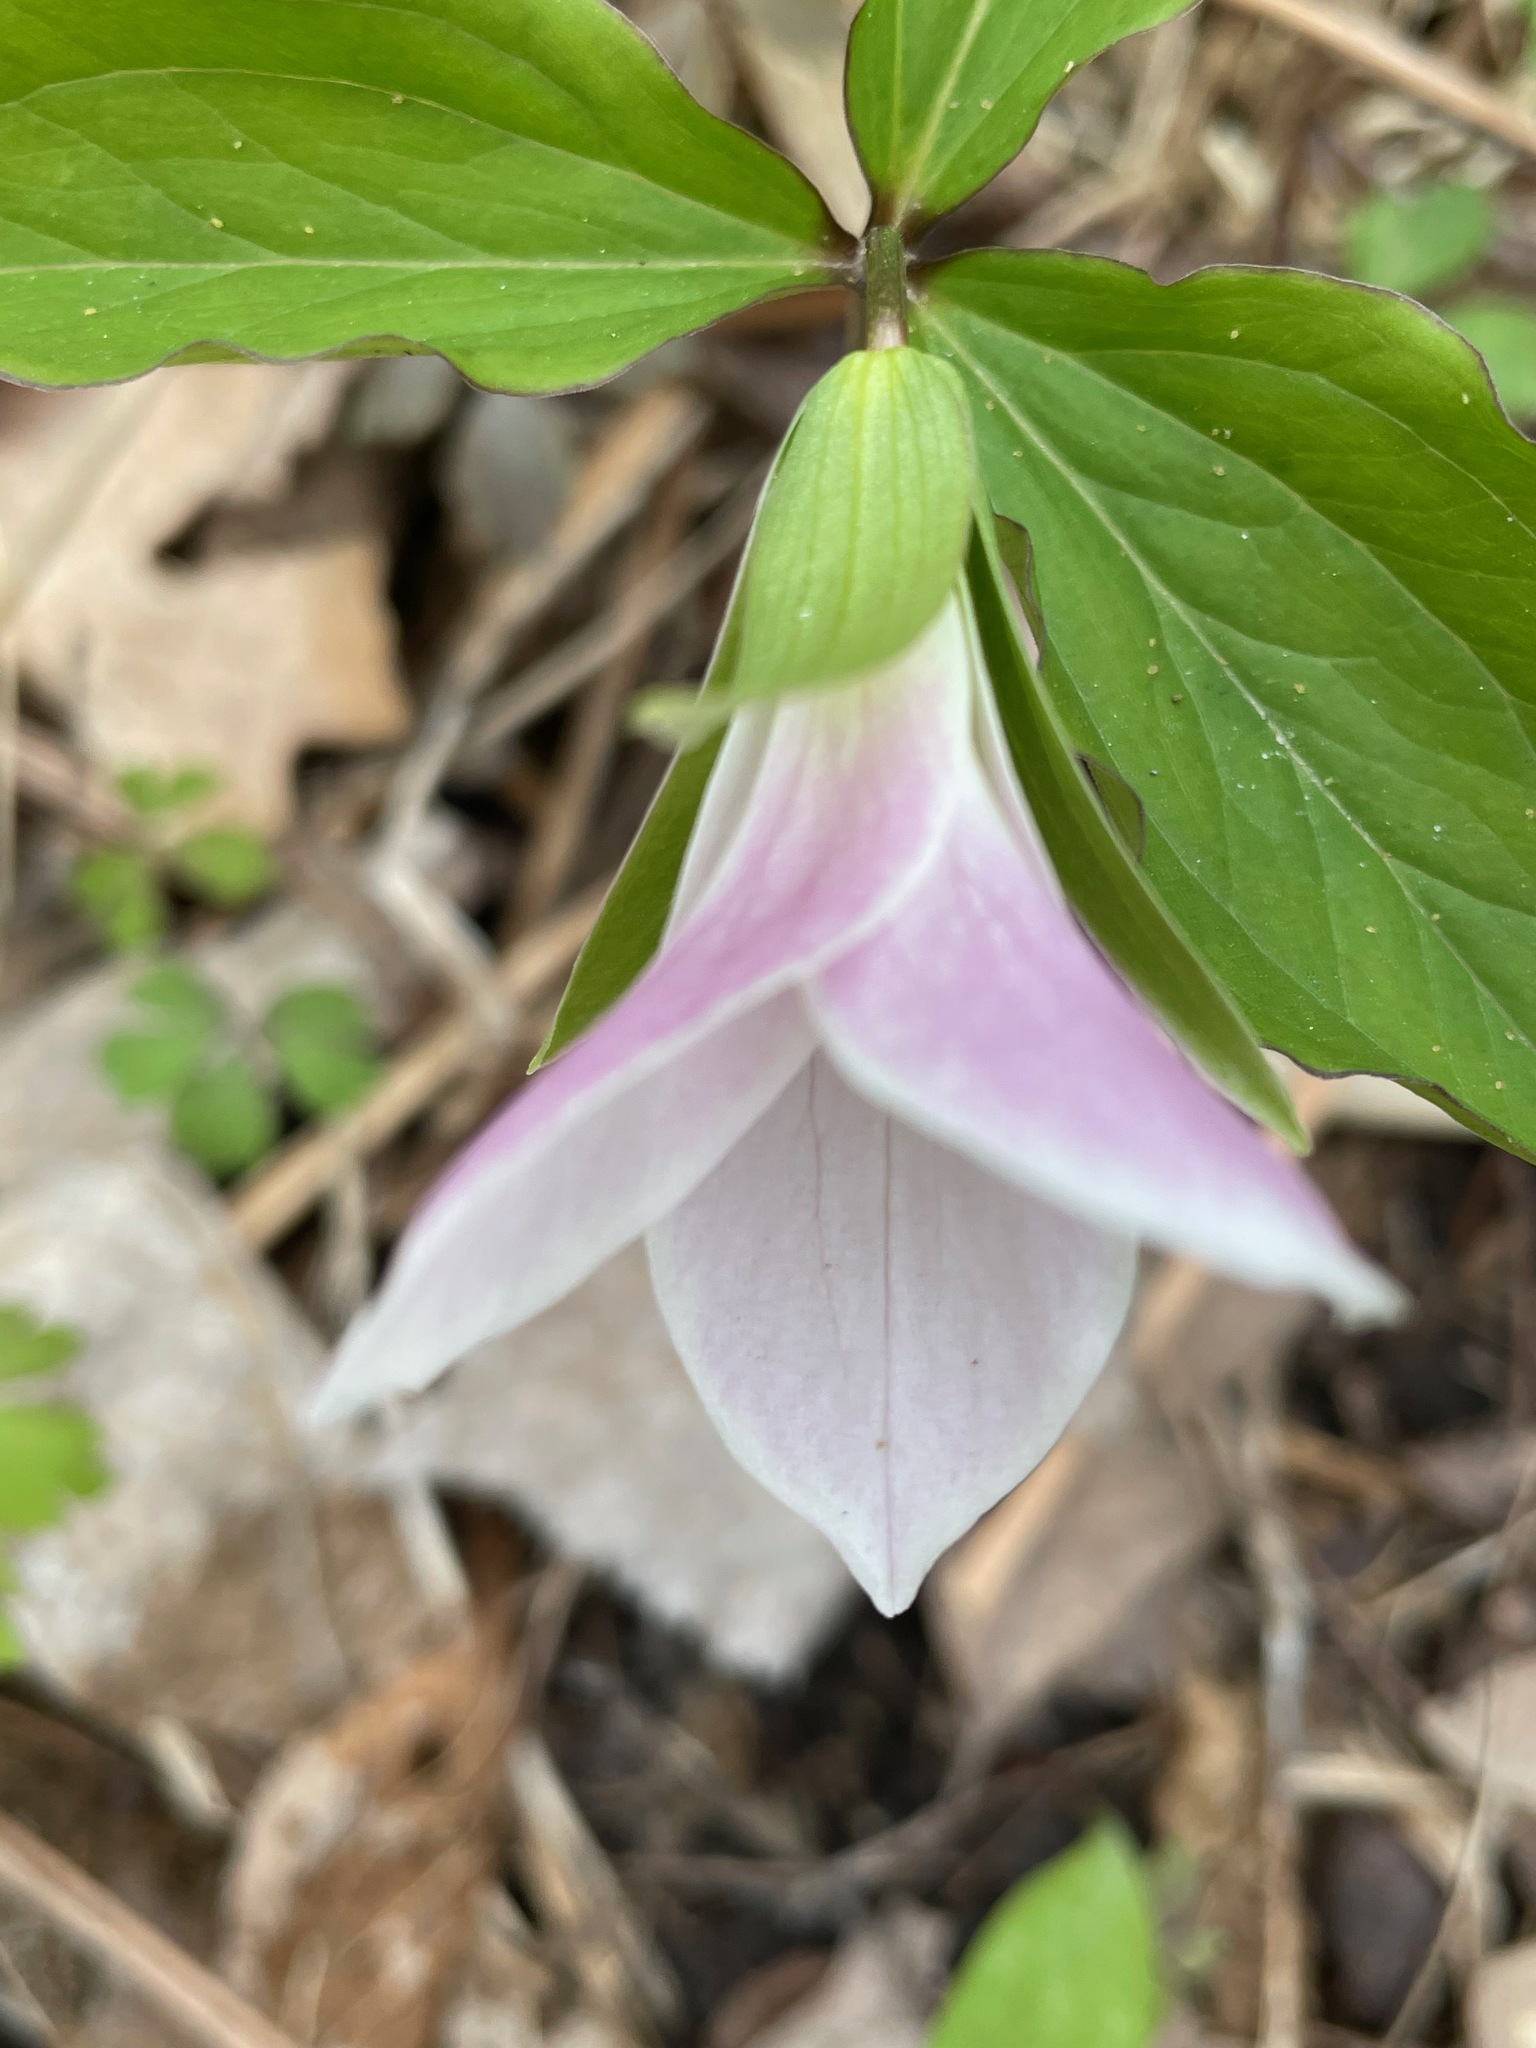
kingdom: Plantae
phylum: Tracheophyta
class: Liliopsida
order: Liliales
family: Melanthiaceae
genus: Trillium
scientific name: Trillium grandiflorum
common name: Great white trillium
